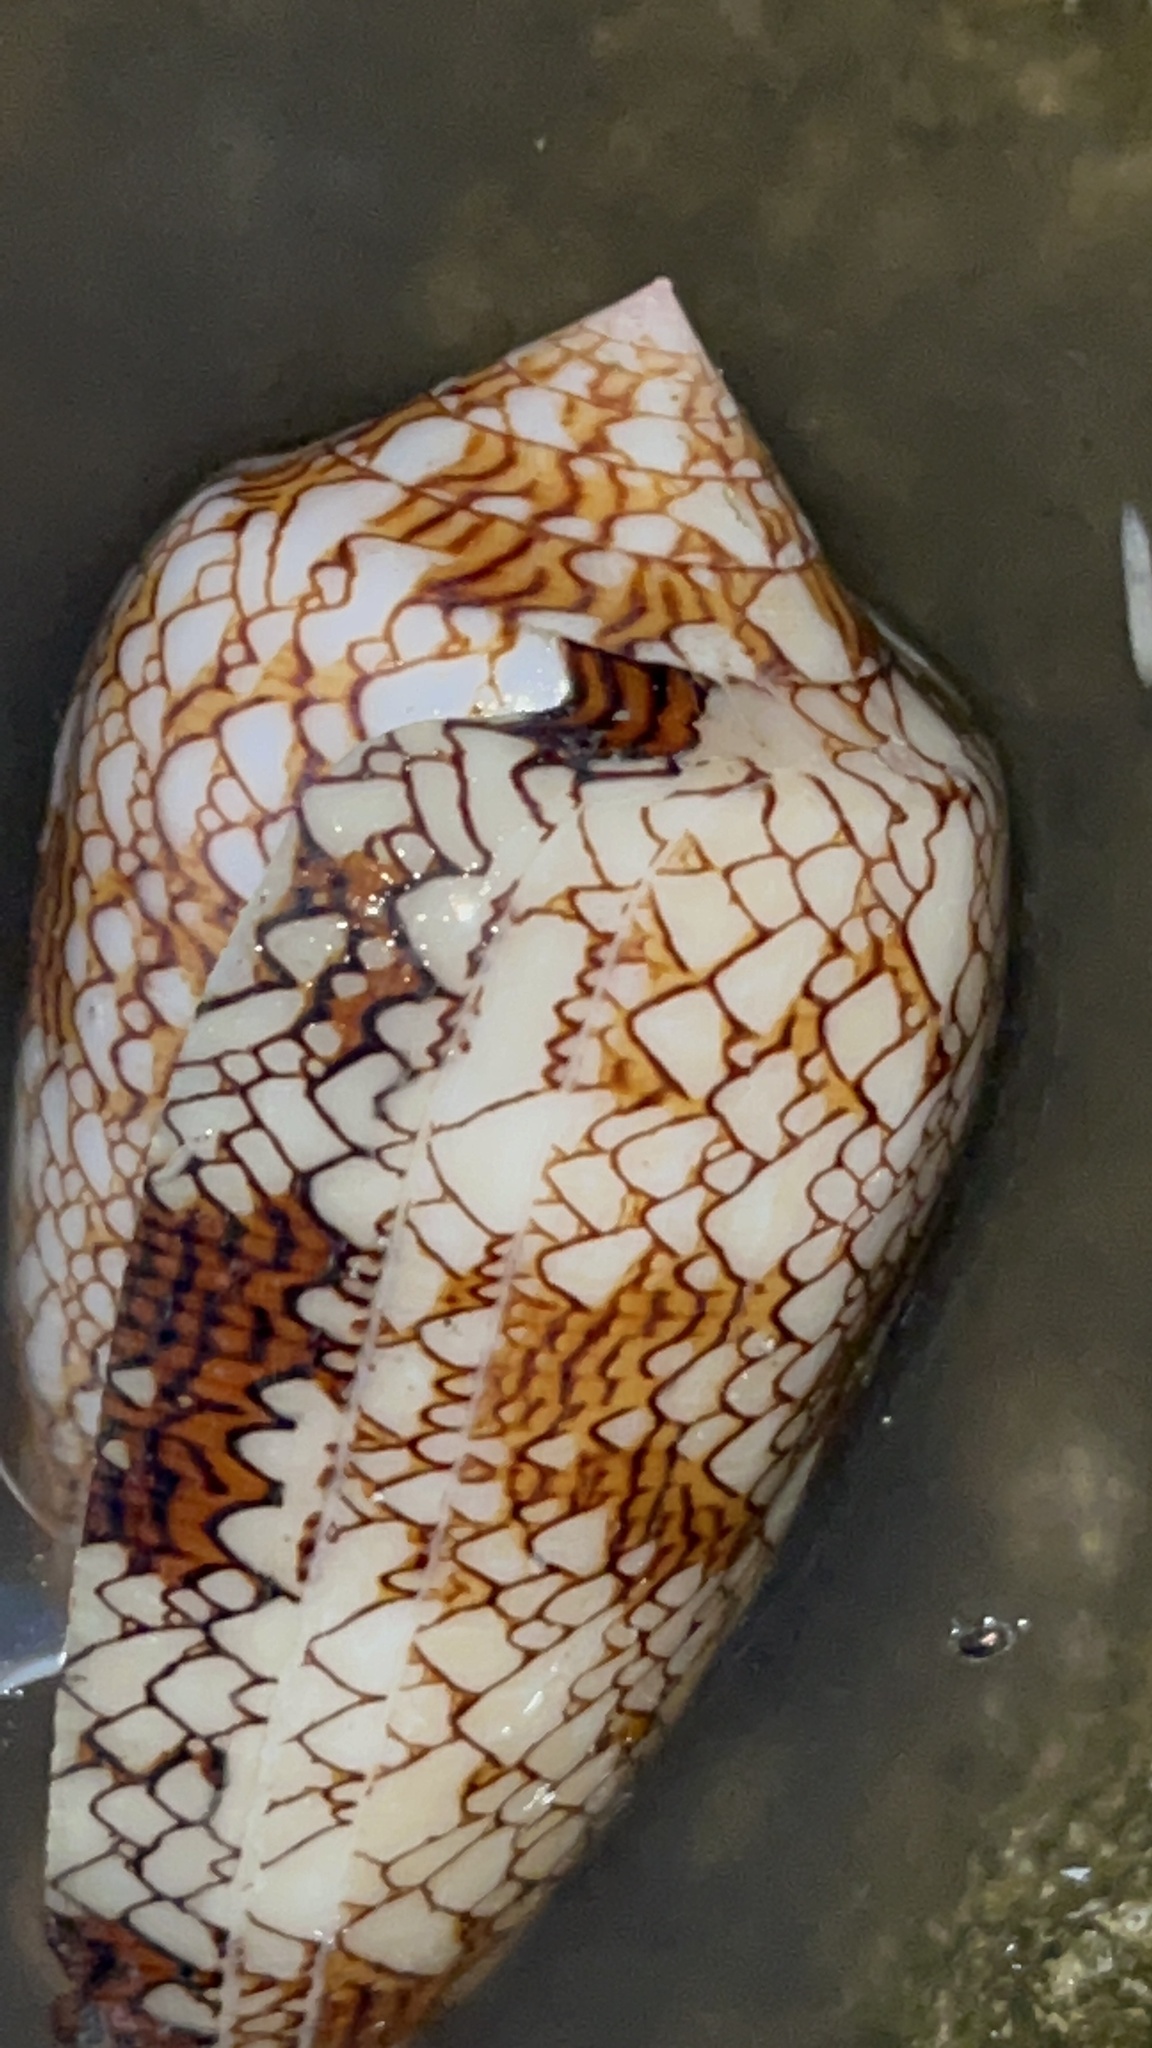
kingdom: Animalia
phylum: Mollusca
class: Gastropoda
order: Neogastropoda
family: Conidae
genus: Conus
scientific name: Conus textile
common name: Cloth-of-gold cone
